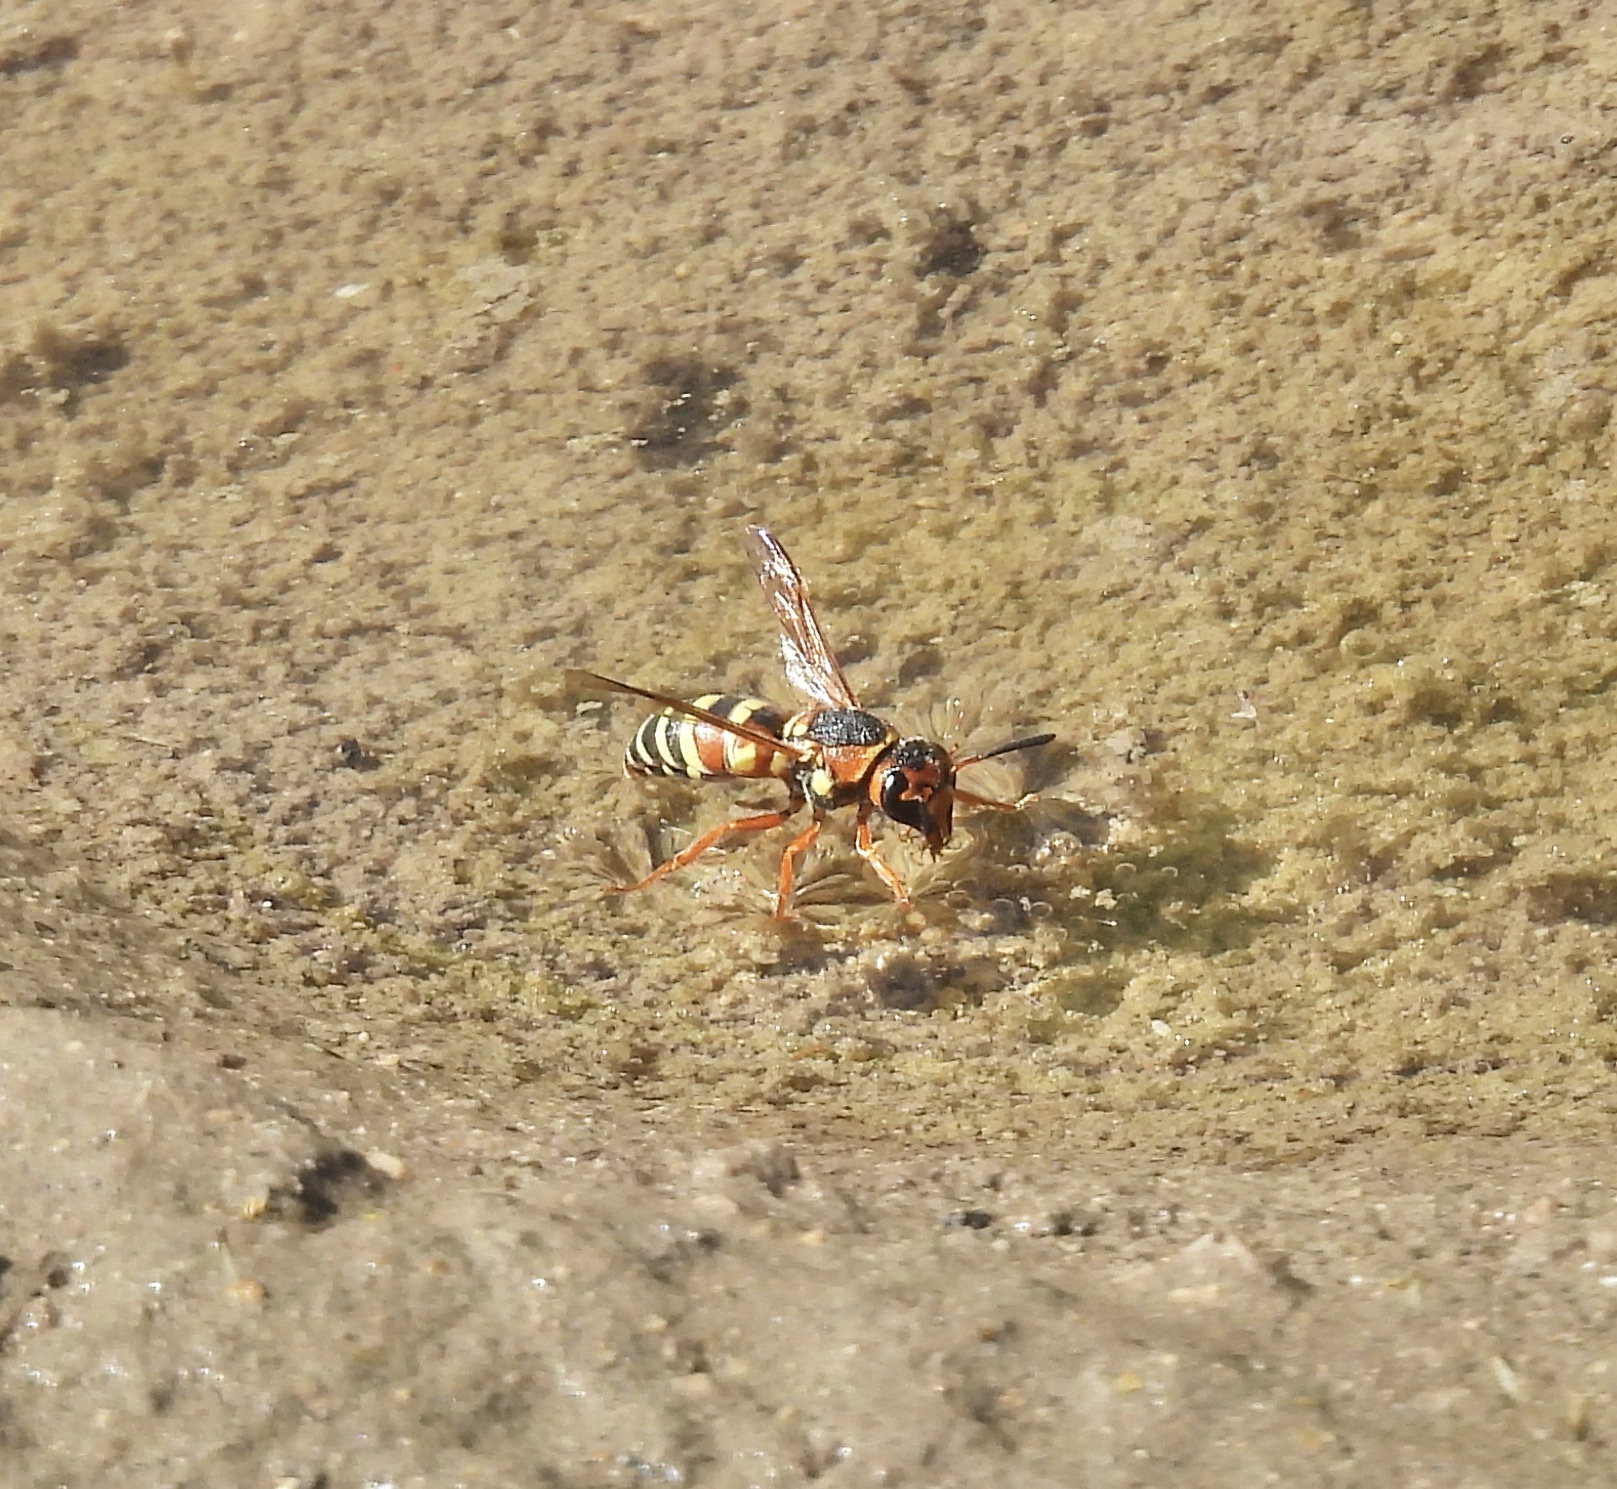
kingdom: Animalia
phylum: Arthropoda
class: Insecta
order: Hymenoptera
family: Eumenidae
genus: Euodynerus
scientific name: Euodynerus annulatus
